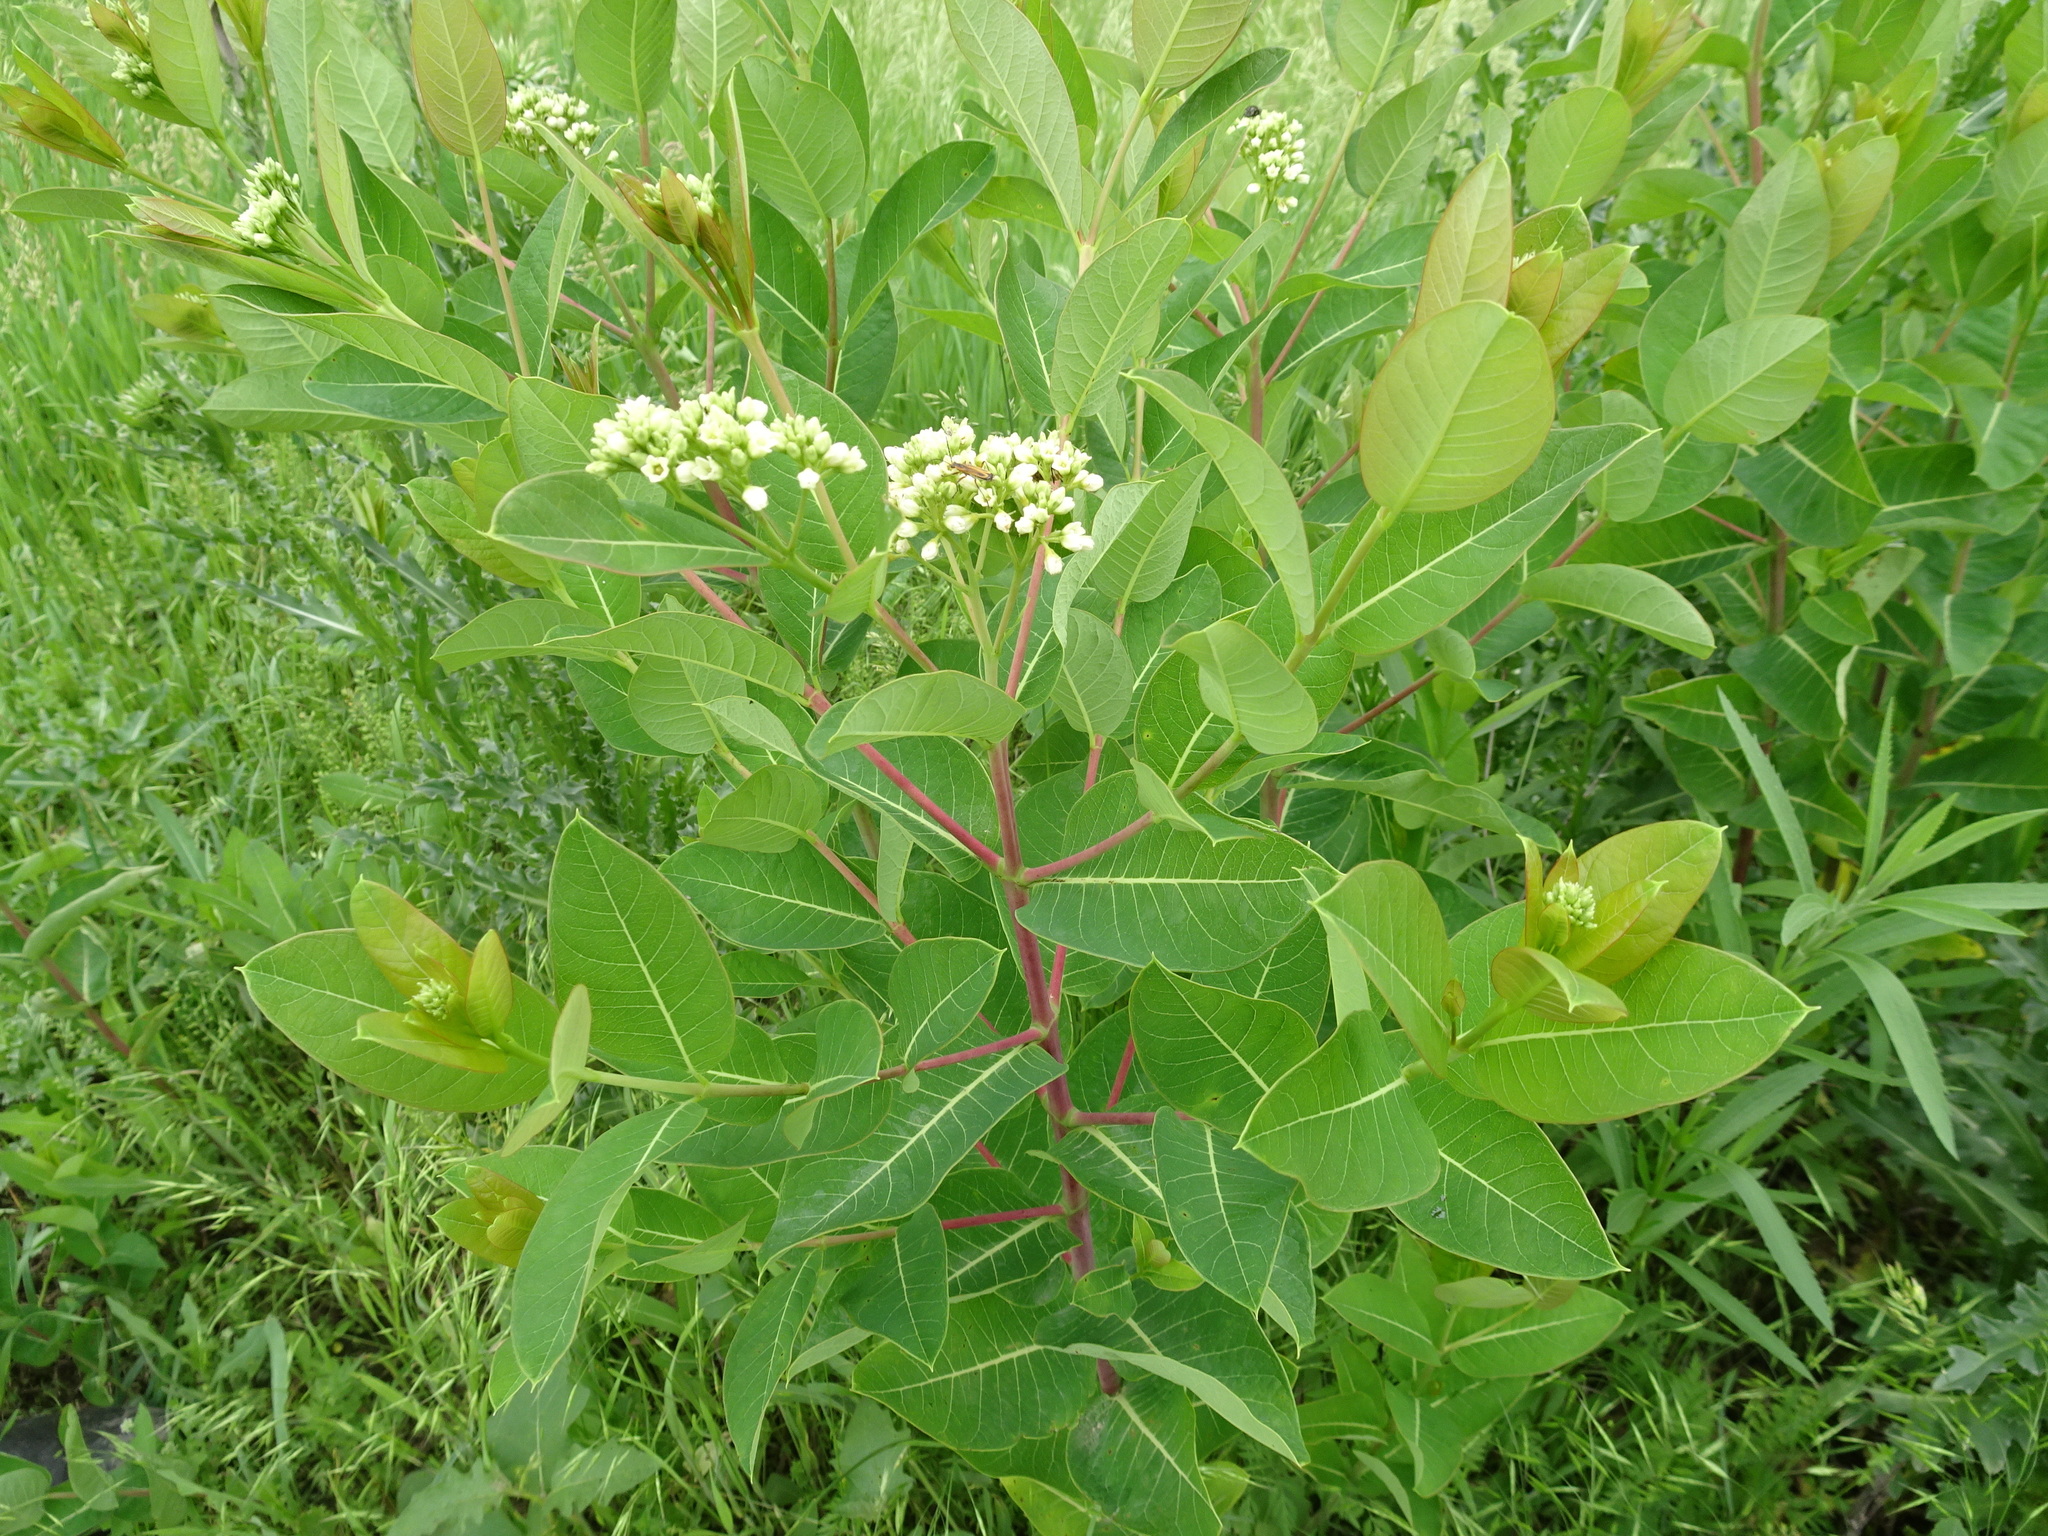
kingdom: Plantae
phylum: Tracheophyta
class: Magnoliopsida
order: Gentianales
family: Apocynaceae
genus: Apocynum
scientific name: Apocynum cannabinum
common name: Hemp dogbane
